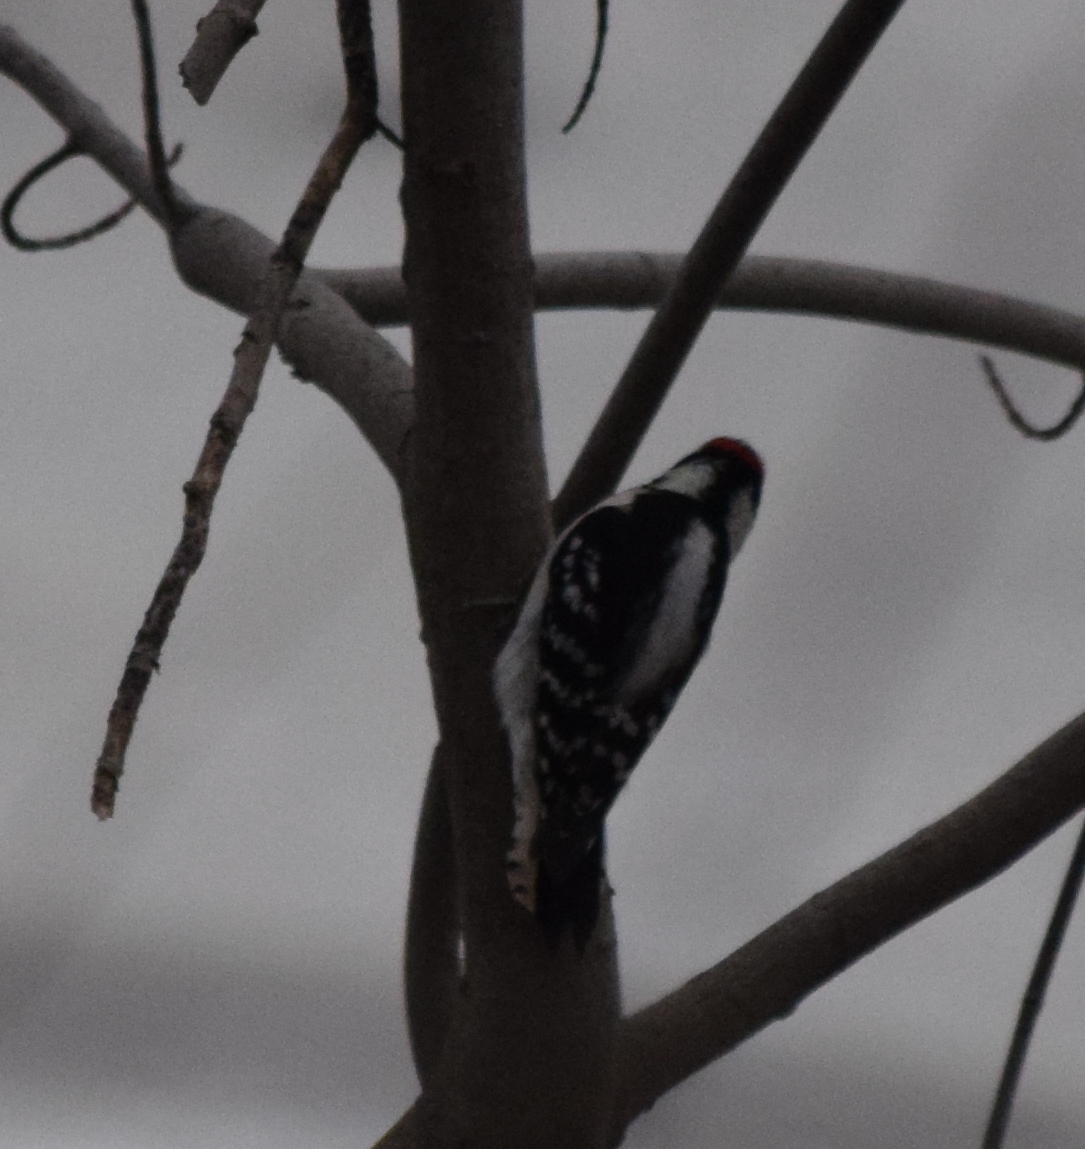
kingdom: Animalia
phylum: Chordata
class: Aves
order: Piciformes
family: Picidae
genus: Dryobates
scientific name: Dryobates pubescens
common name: Downy woodpecker
